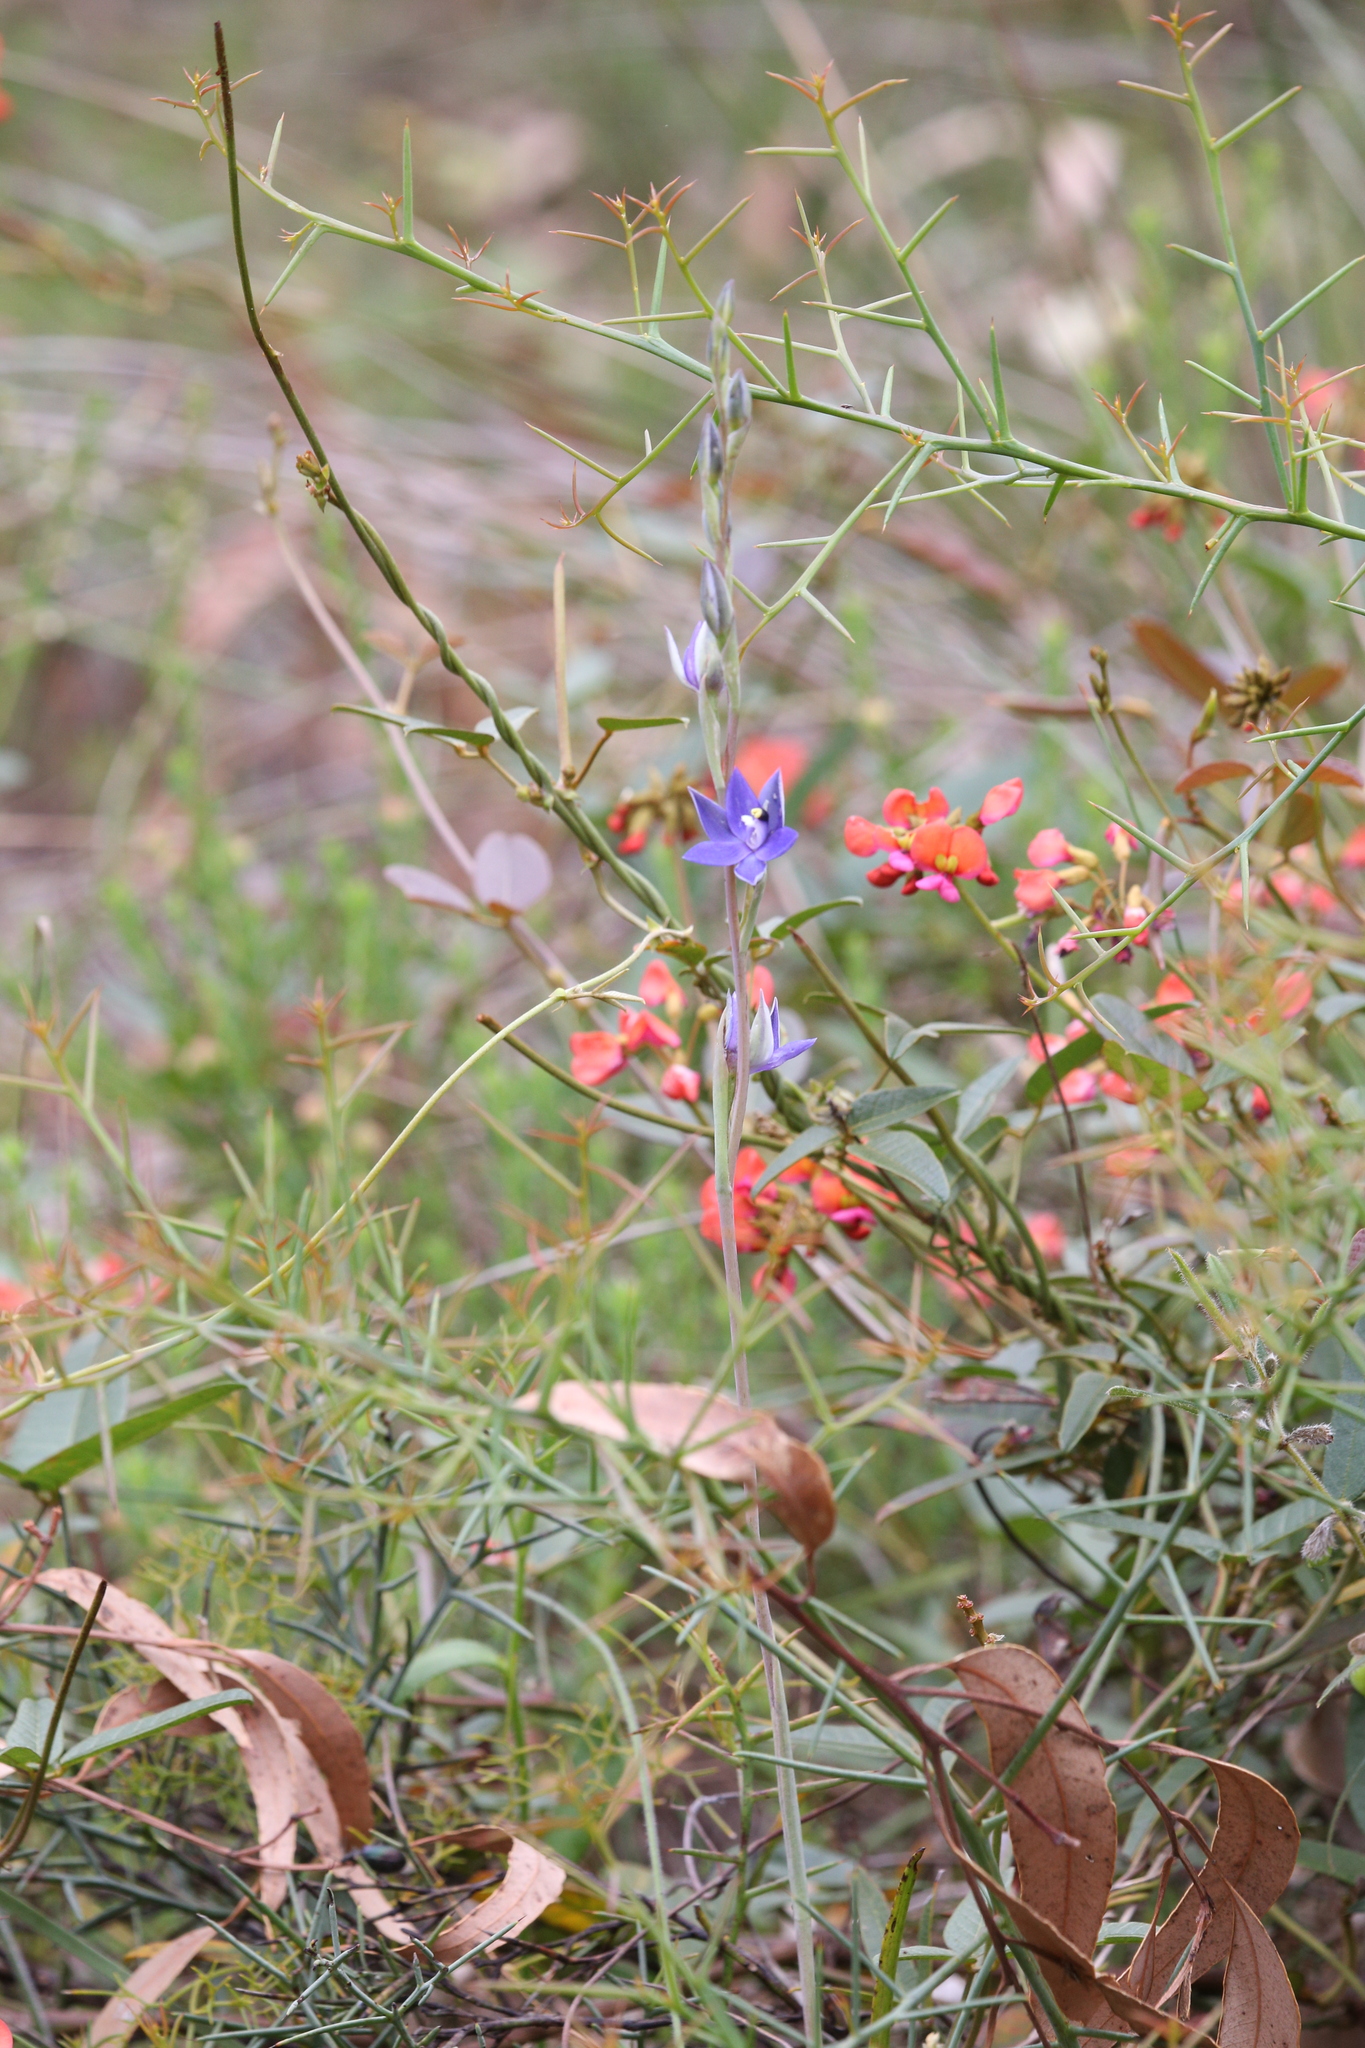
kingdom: Plantae
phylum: Tracheophyta
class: Magnoliopsida
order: Fabales
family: Fabaceae
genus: Kennedia
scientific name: Kennedia coccinea
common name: Coralvine
